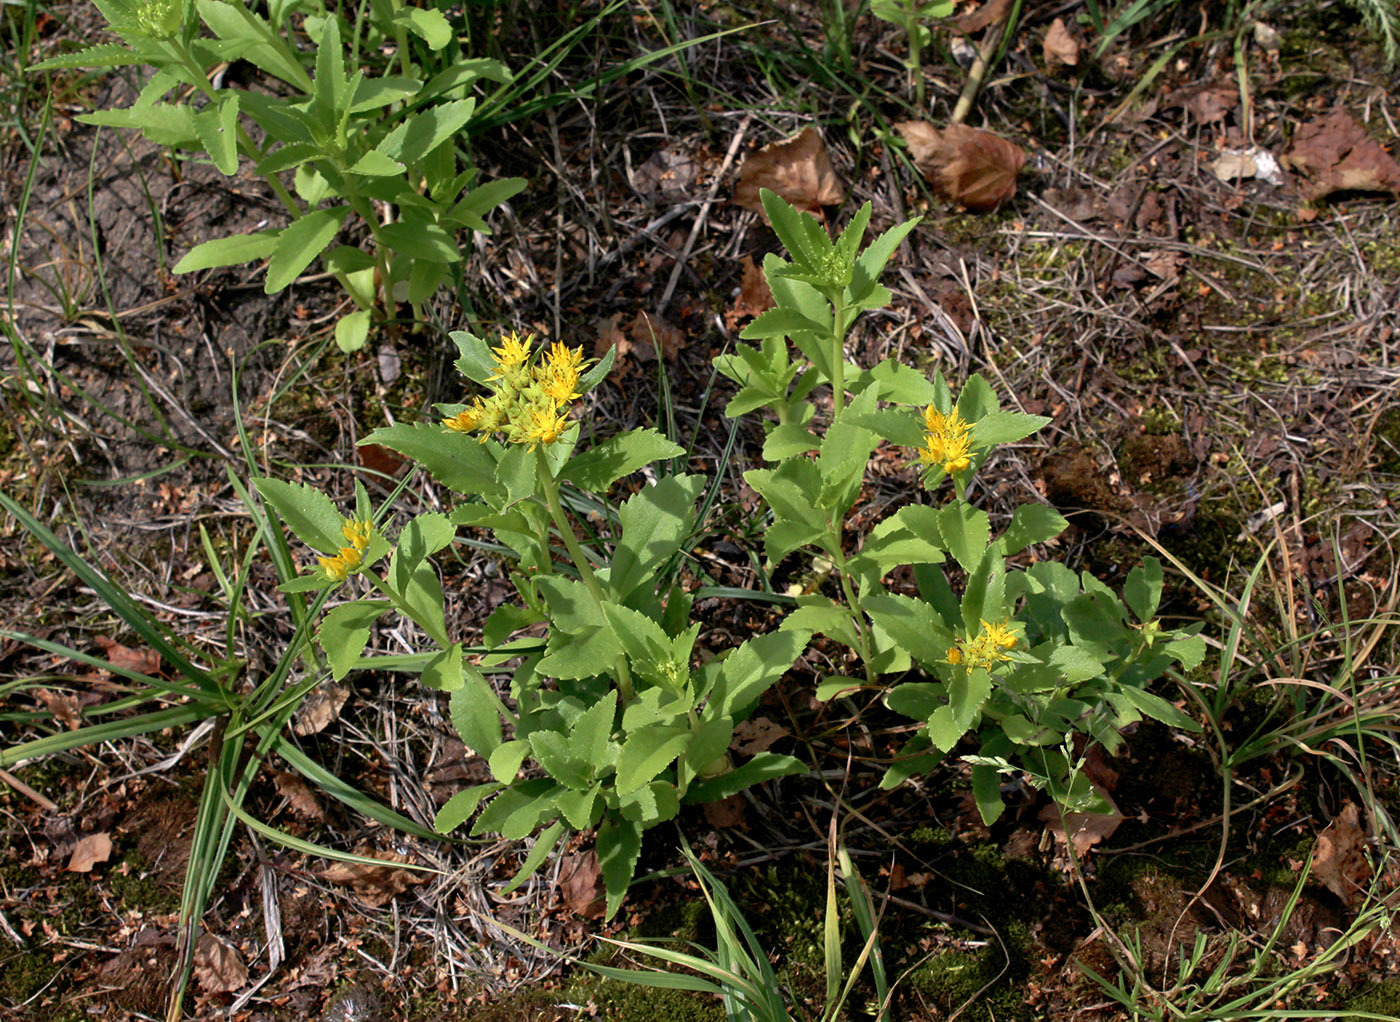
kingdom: Plantae
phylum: Tracheophyta
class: Magnoliopsida
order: Saxifragales
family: Crassulaceae
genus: Phedimus
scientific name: Phedimus aizoon
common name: Orpin aizoon
